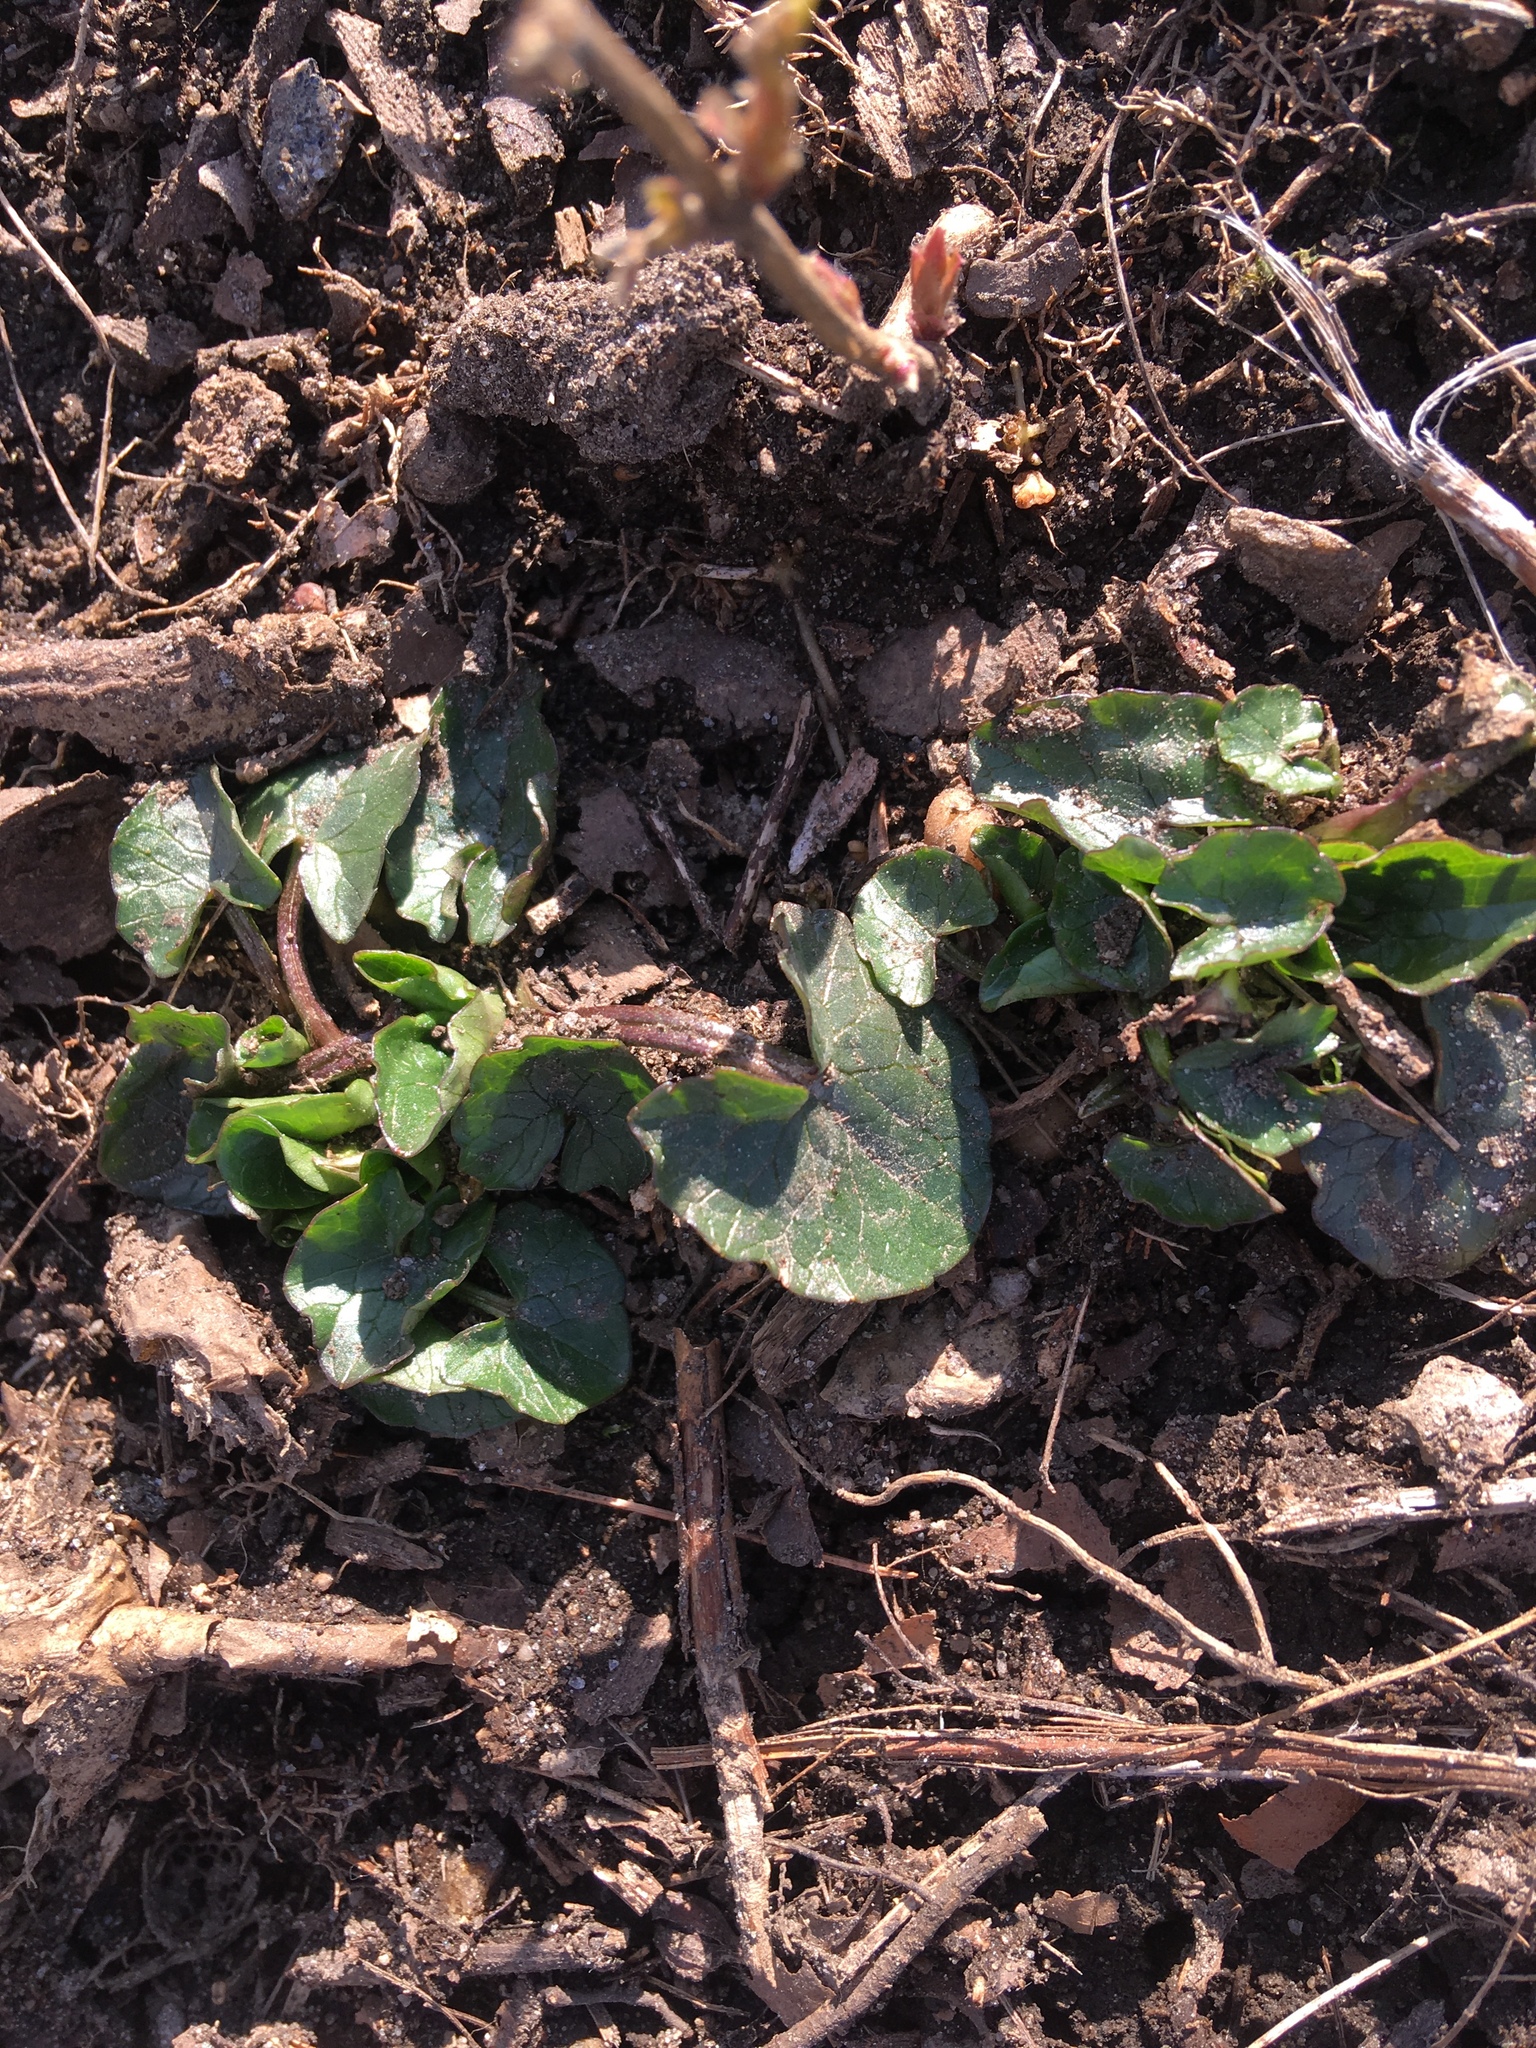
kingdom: Plantae
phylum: Tracheophyta
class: Magnoliopsida
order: Ranunculales
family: Ranunculaceae
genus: Ficaria
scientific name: Ficaria verna
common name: Lesser celandine
